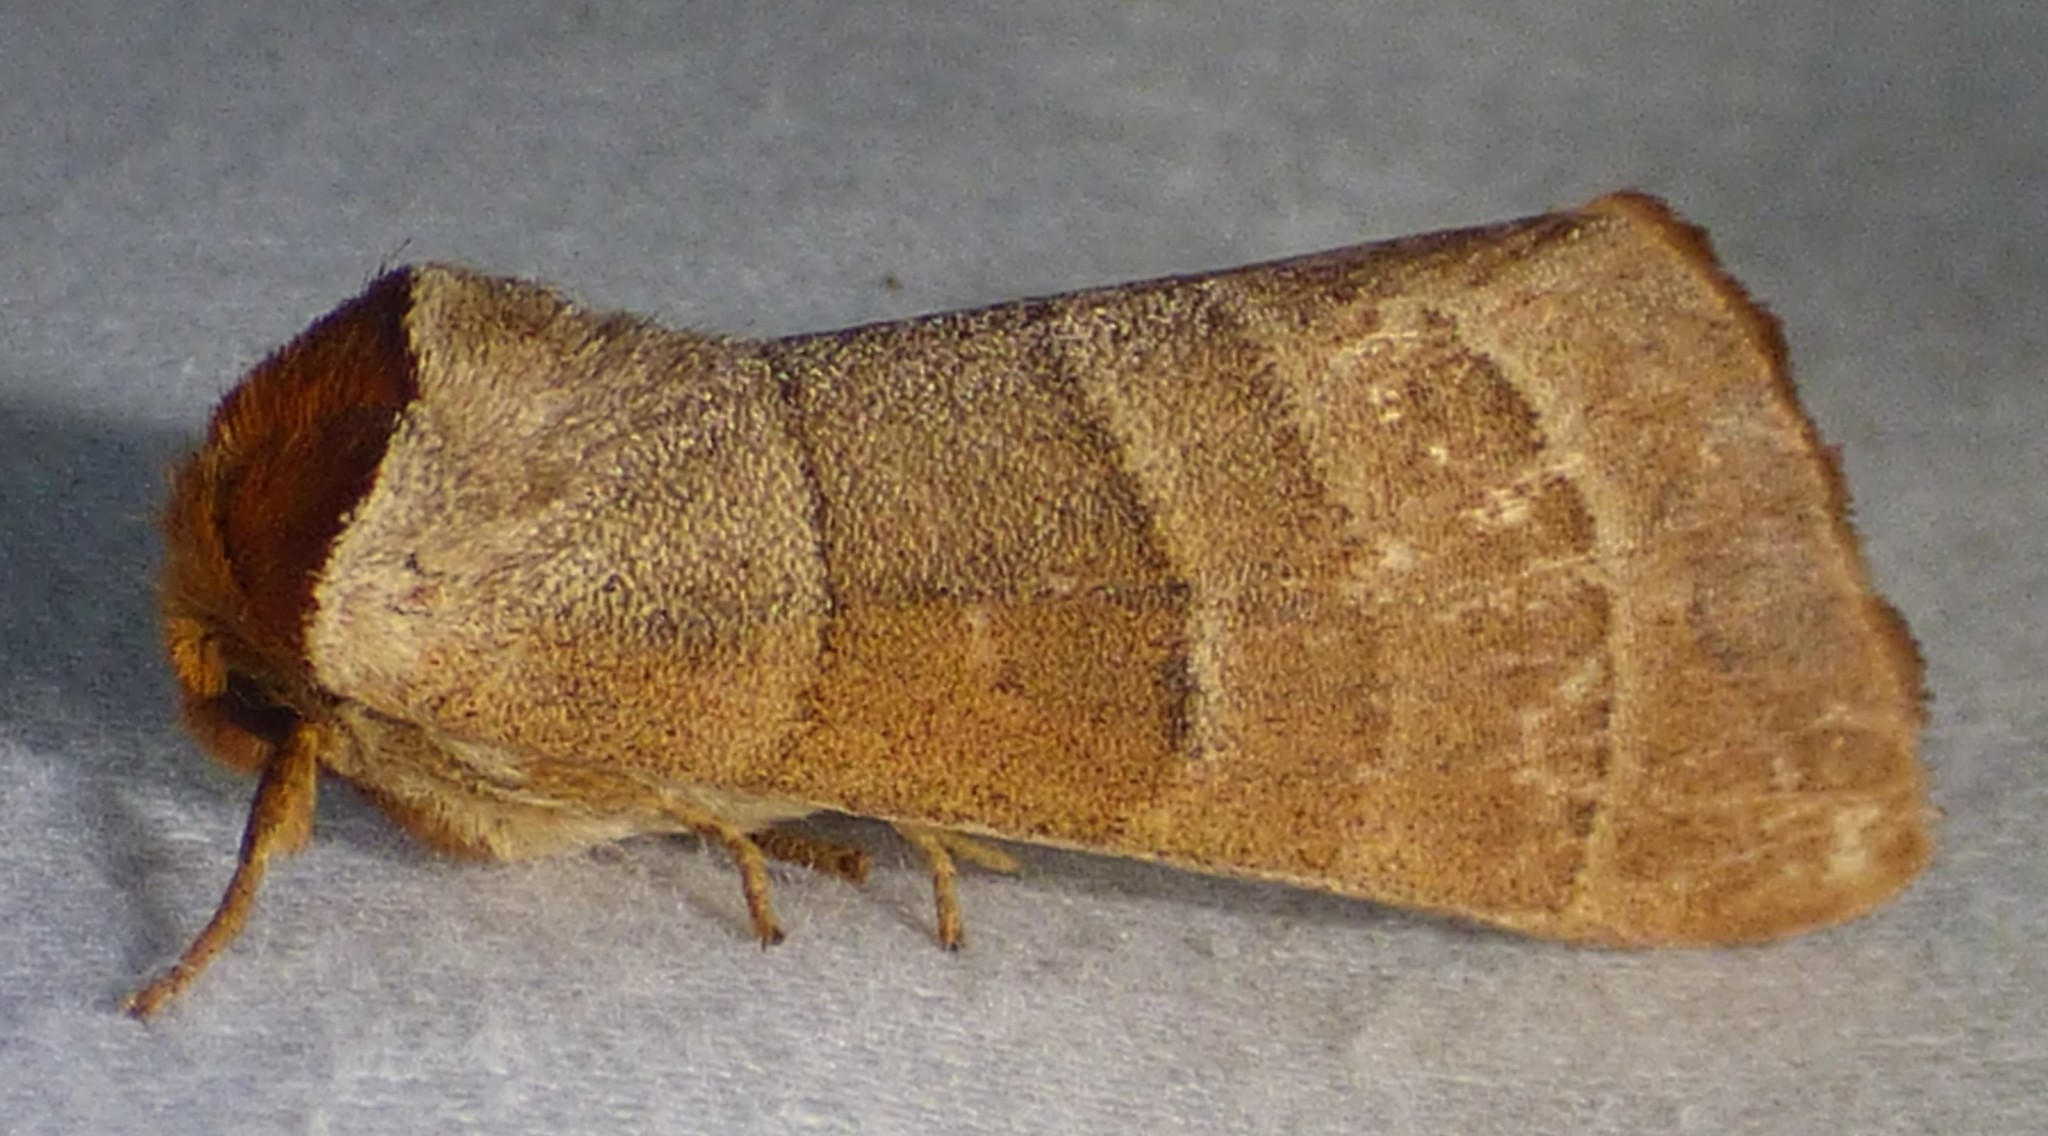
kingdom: Animalia
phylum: Arthropoda
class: Insecta
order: Lepidoptera
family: Notodontidae
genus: Datana
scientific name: Datana integerrima
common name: Walnut caterpillar
